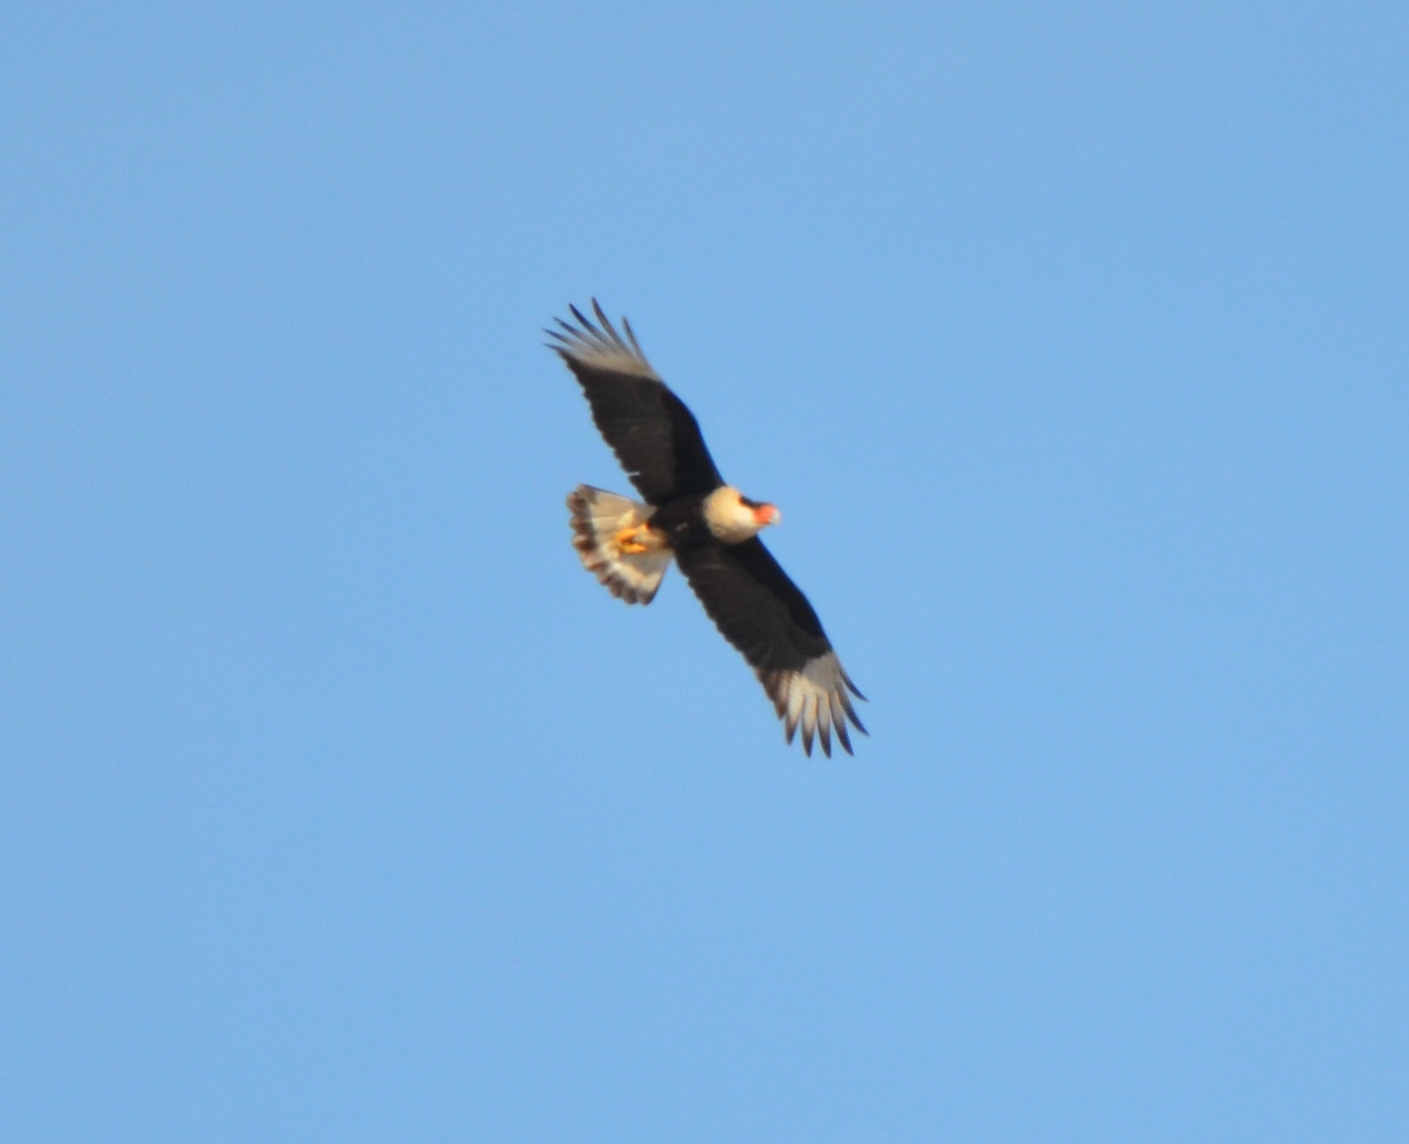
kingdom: Animalia
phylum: Chordata
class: Aves
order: Falconiformes
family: Falconidae
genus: Caracara
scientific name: Caracara plancus
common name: Southern caracara
